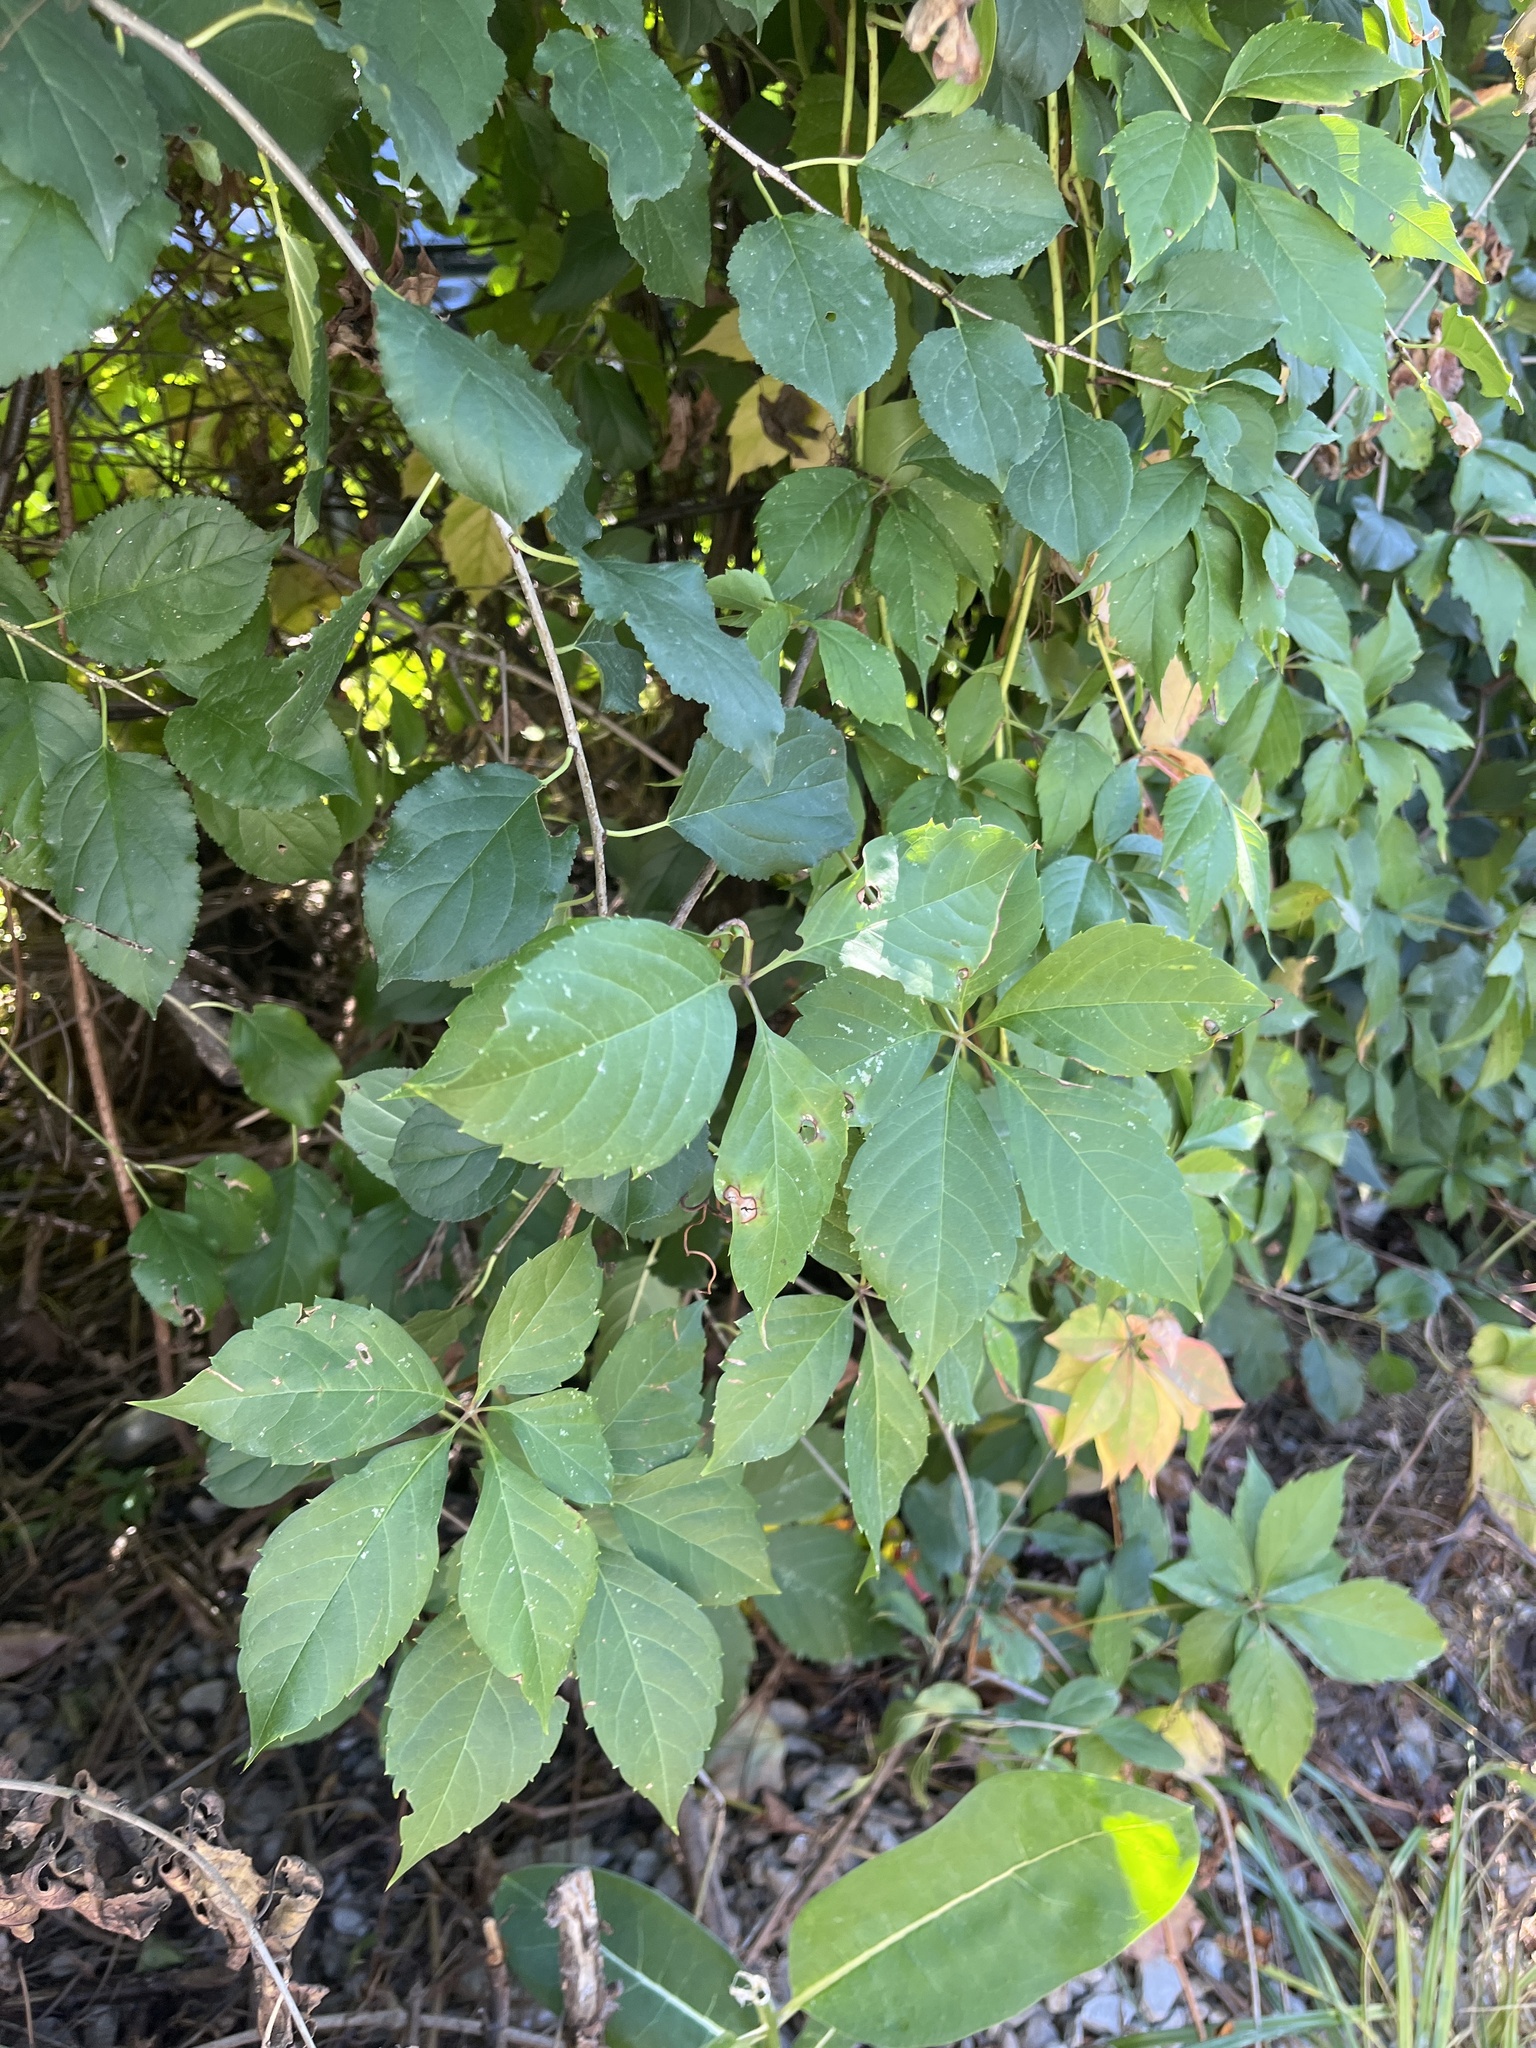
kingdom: Plantae
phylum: Tracheophyta
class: Magnoliopsida
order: Vitales
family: Vitaceae
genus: Parthenocissus
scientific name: Parthenocissus quinquefolia
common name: Virginia-creeper
